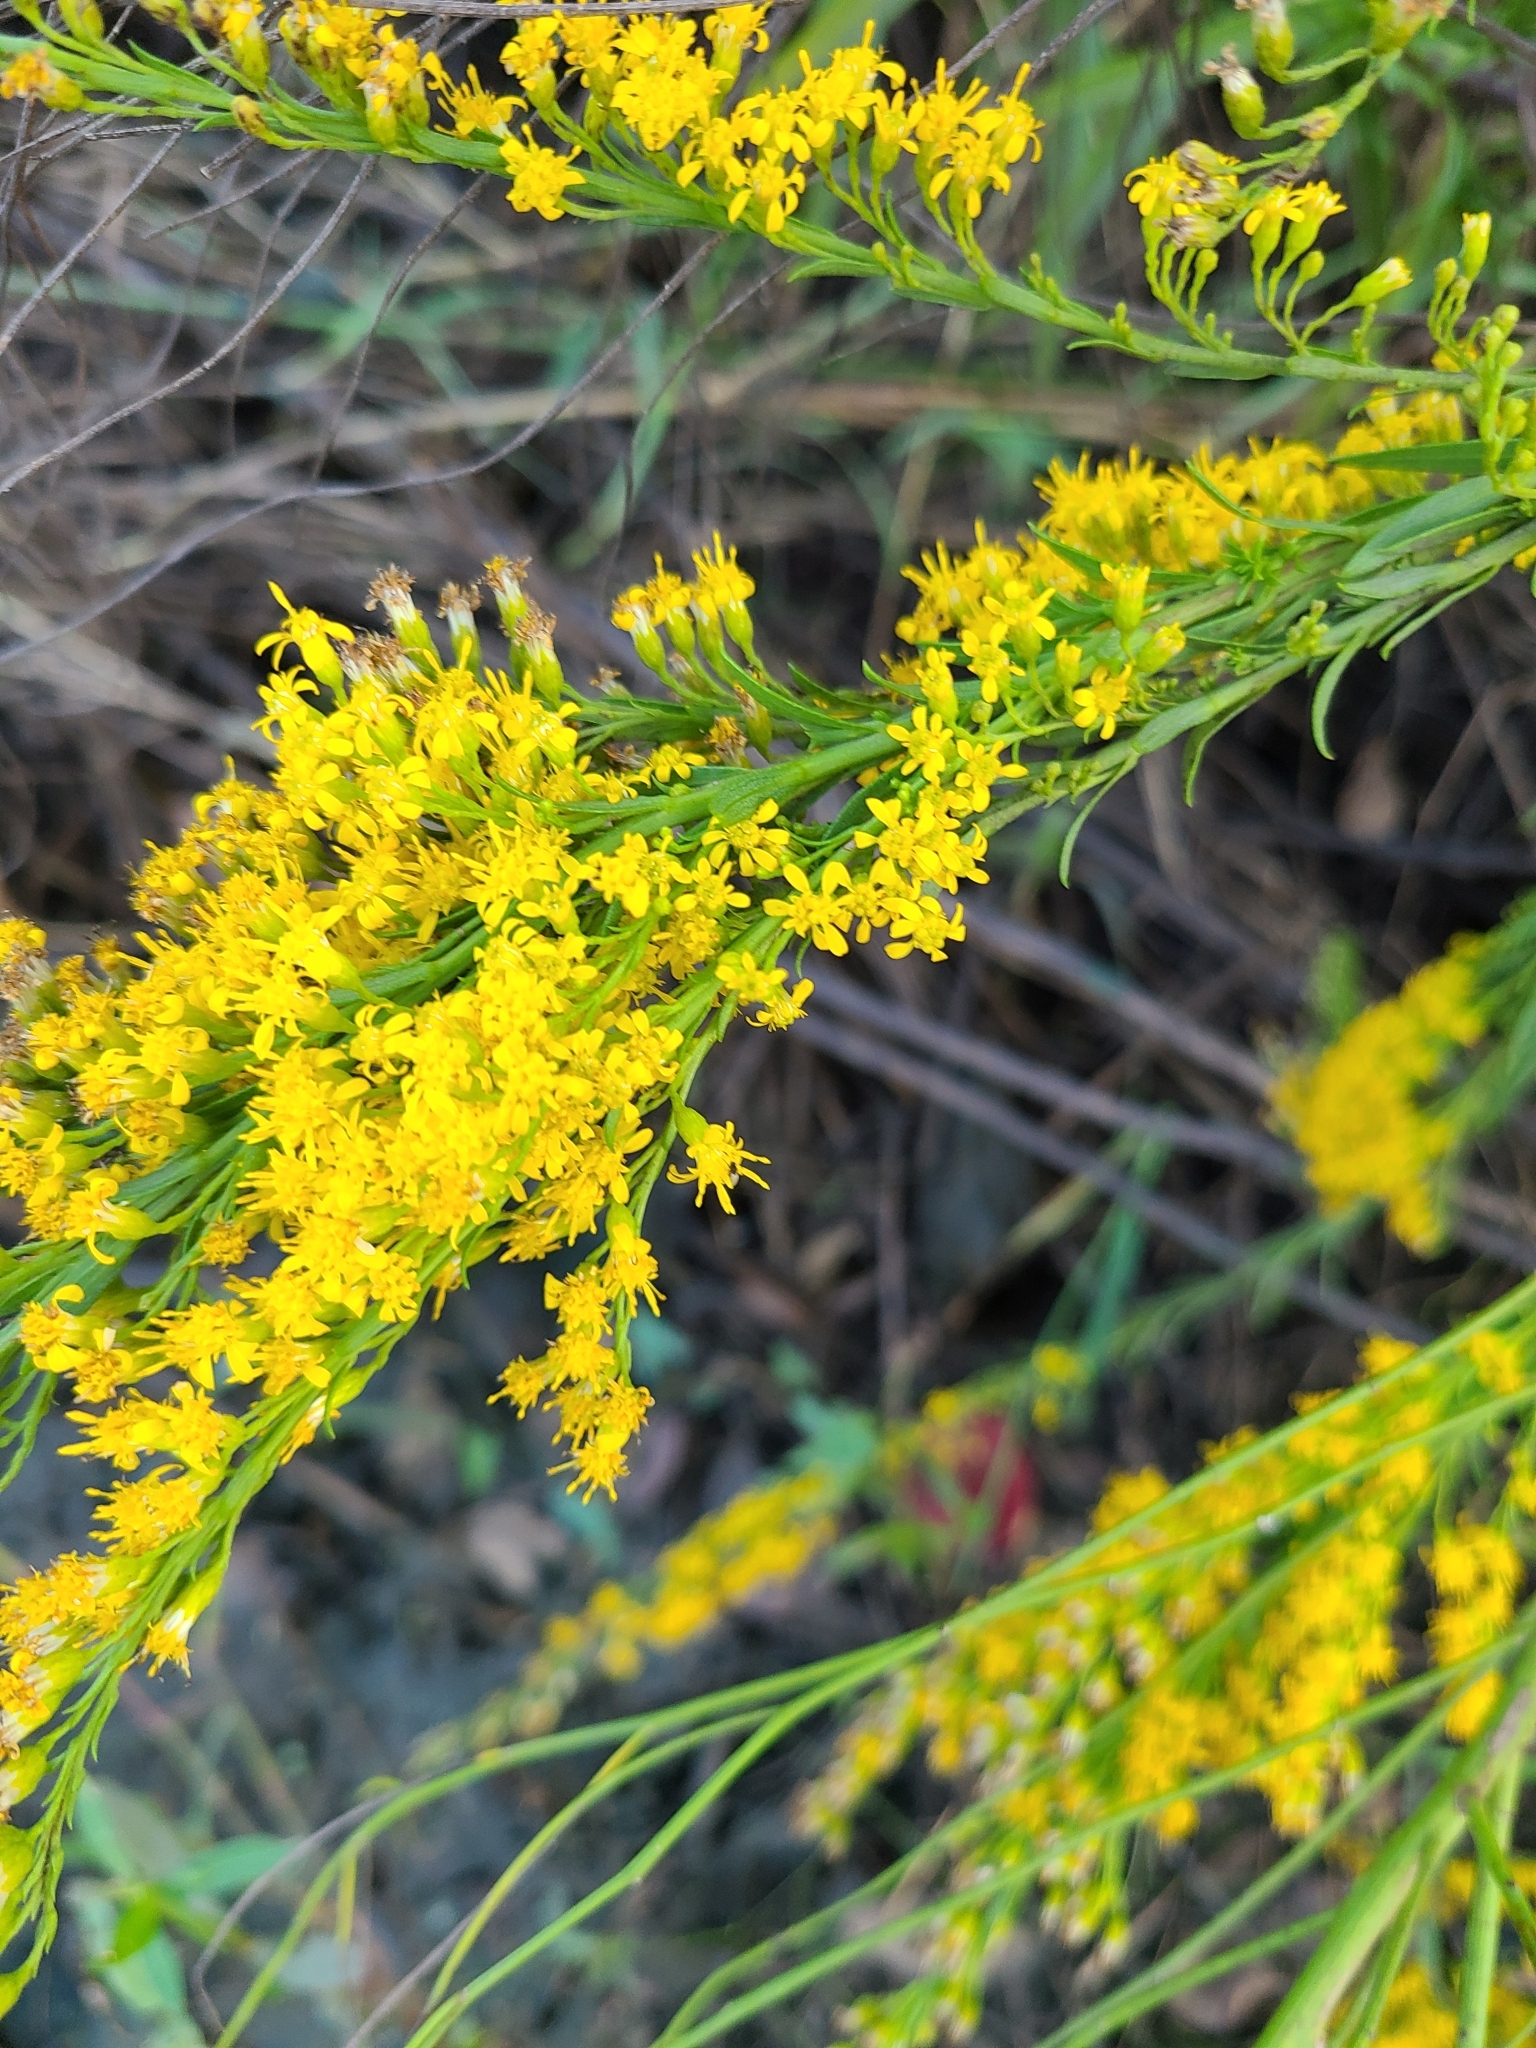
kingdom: Plantae
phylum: Tracheophyta
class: Magnoliopsida
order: Asterales
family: Asteraceae
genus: Solidago
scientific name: Solidago mexicana
